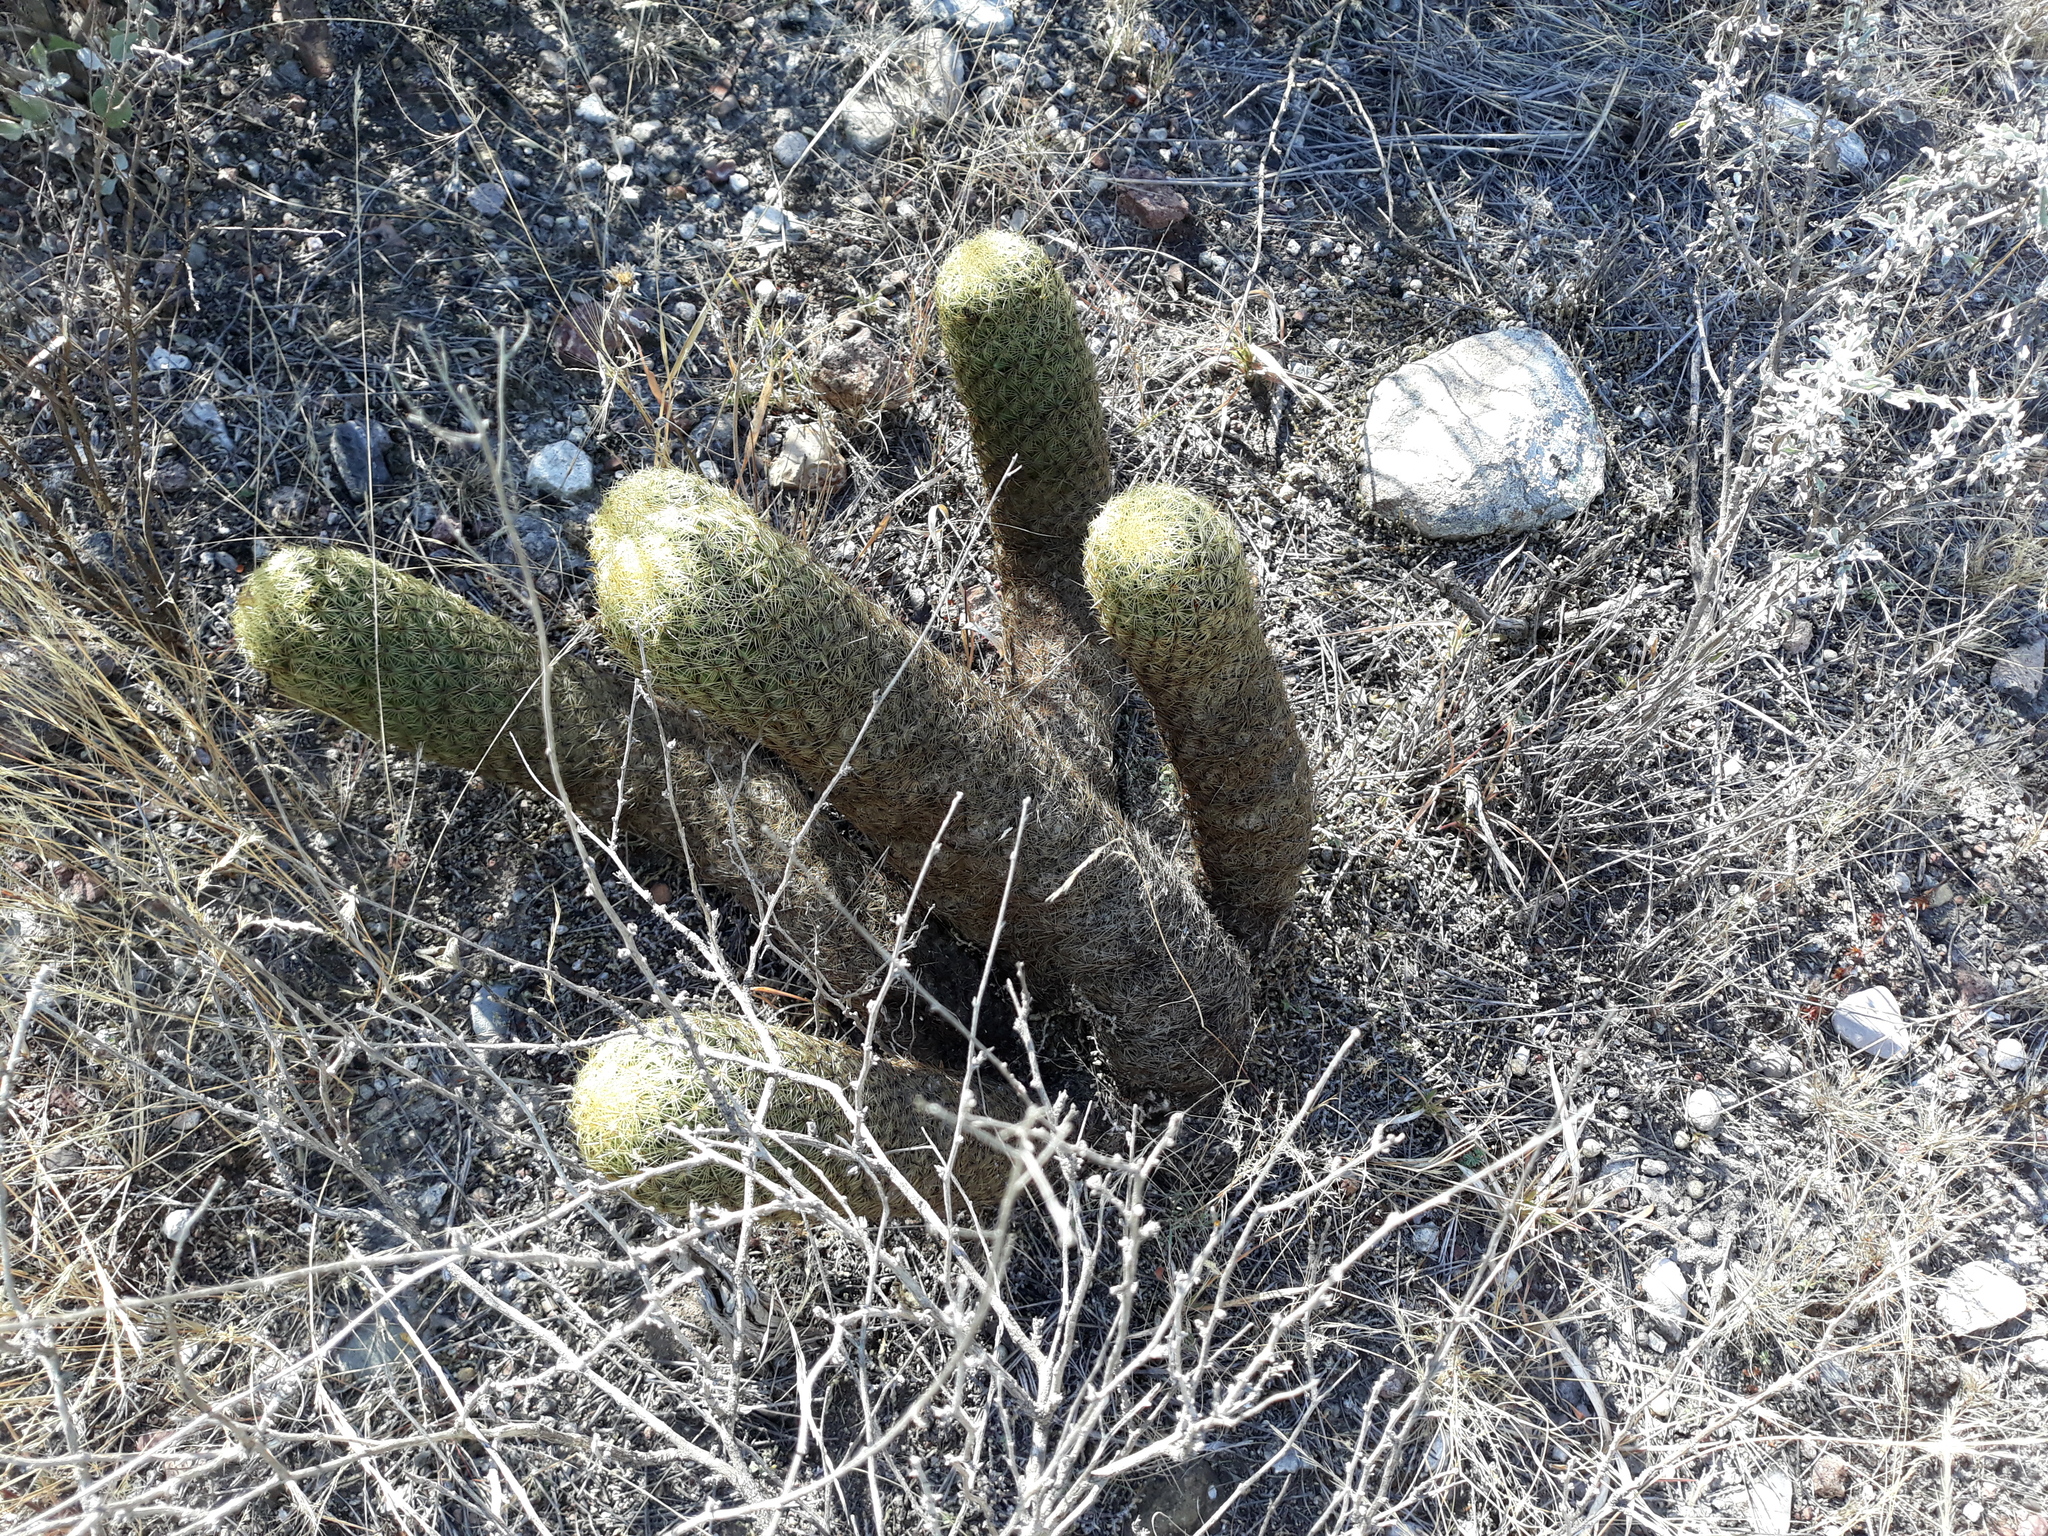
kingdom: Plantae
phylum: Tracheophyta
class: Magnoliopsida
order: Caryophyllales
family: Cactaceae
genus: Coryphantha
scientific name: Coryphantha erecta
